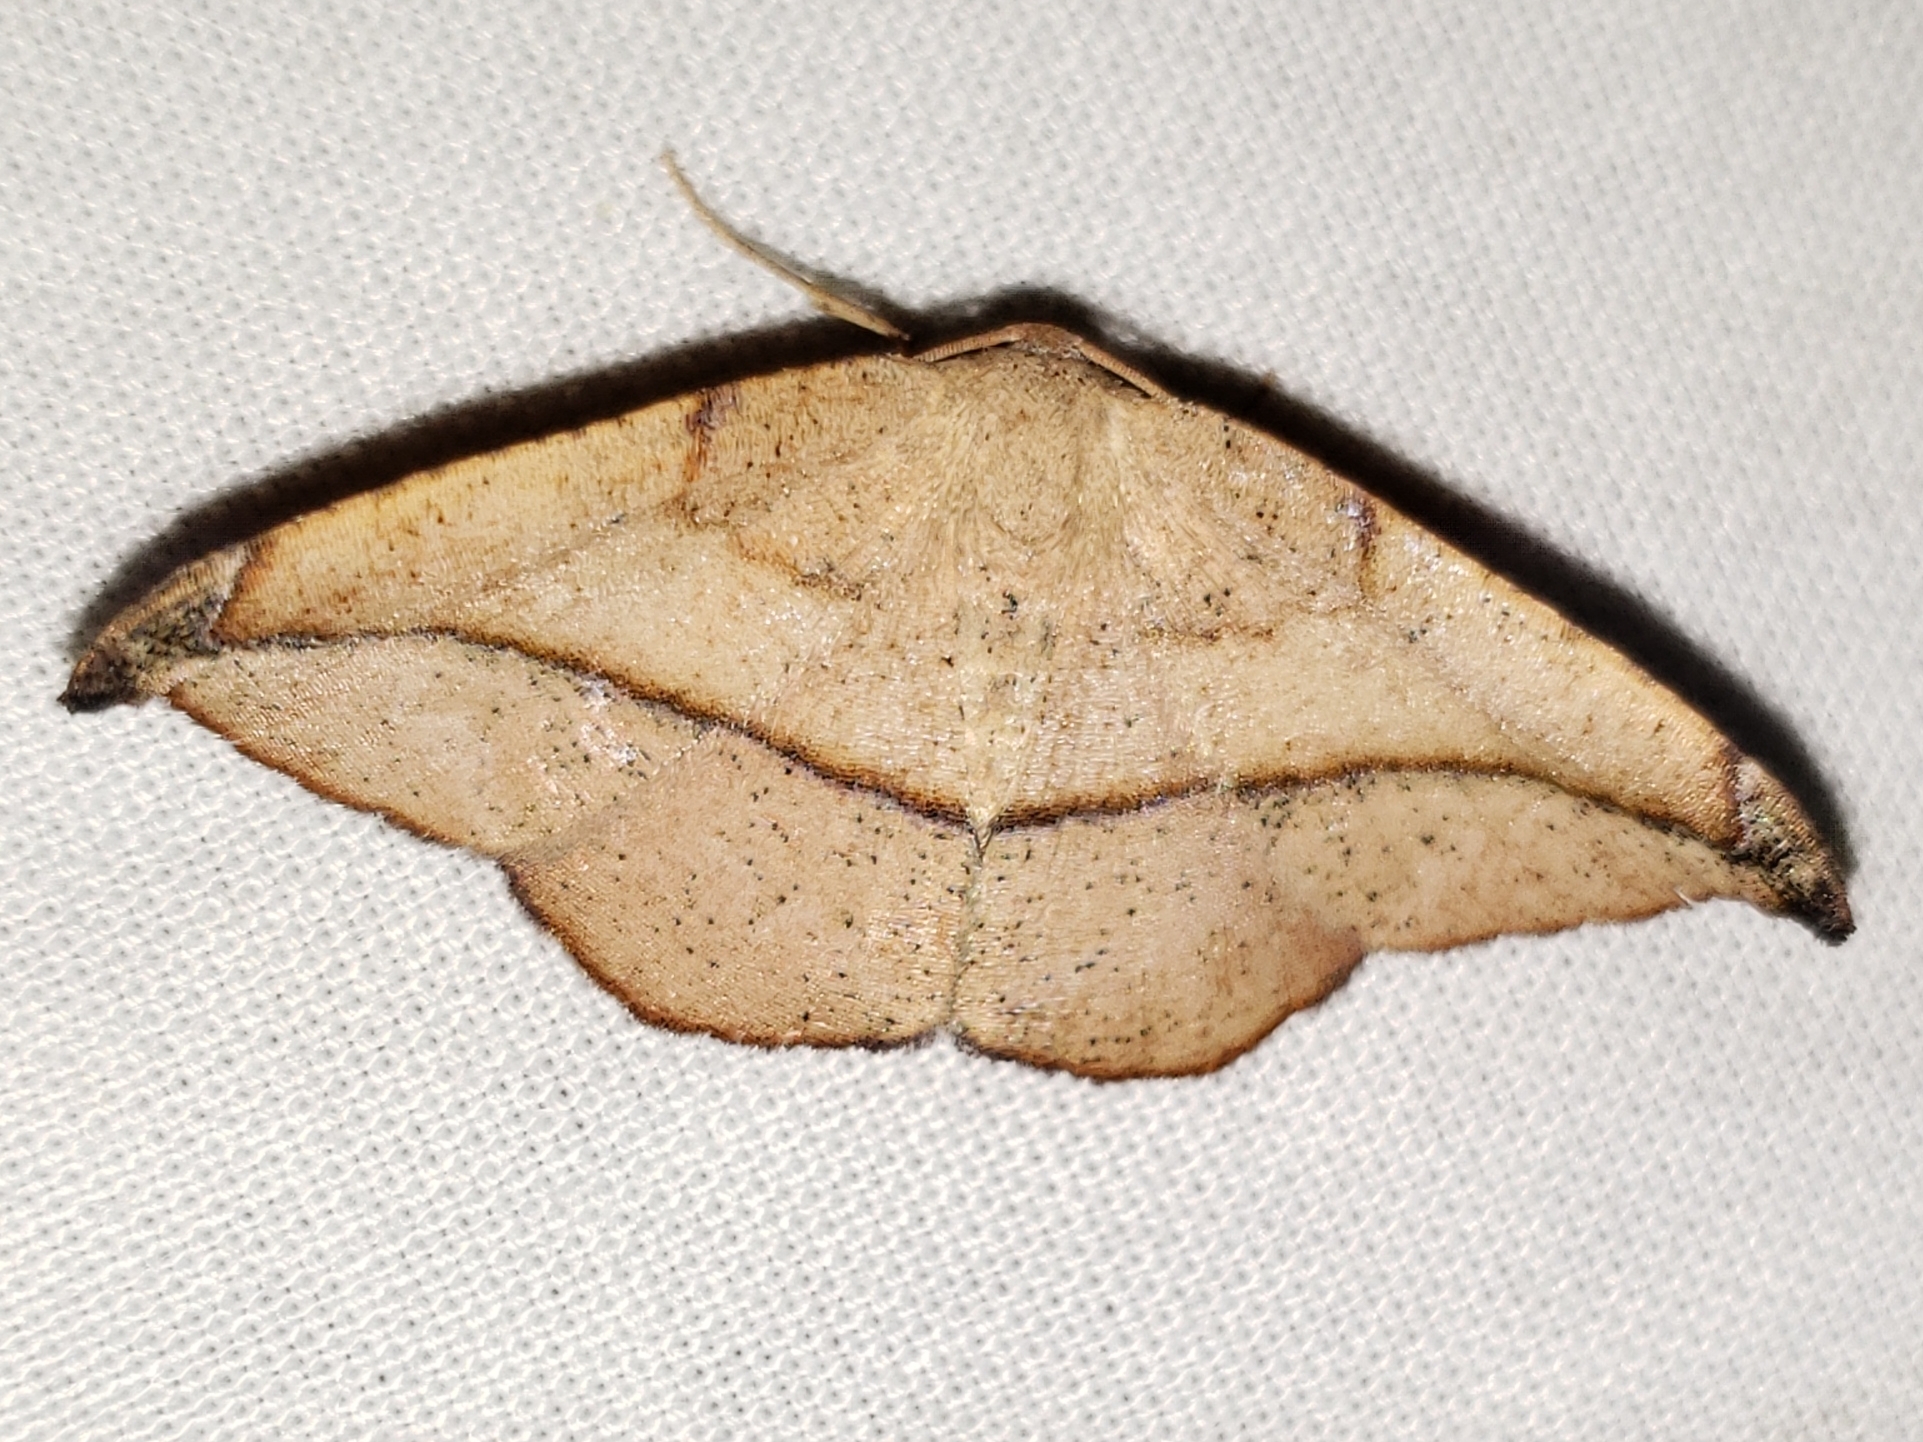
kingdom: Animalia
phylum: Arthropoda
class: Insecta
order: Lepidoptera
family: Geometridae
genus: Patalene
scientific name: Patalene olyzonaria
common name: Juniper geometer moth
